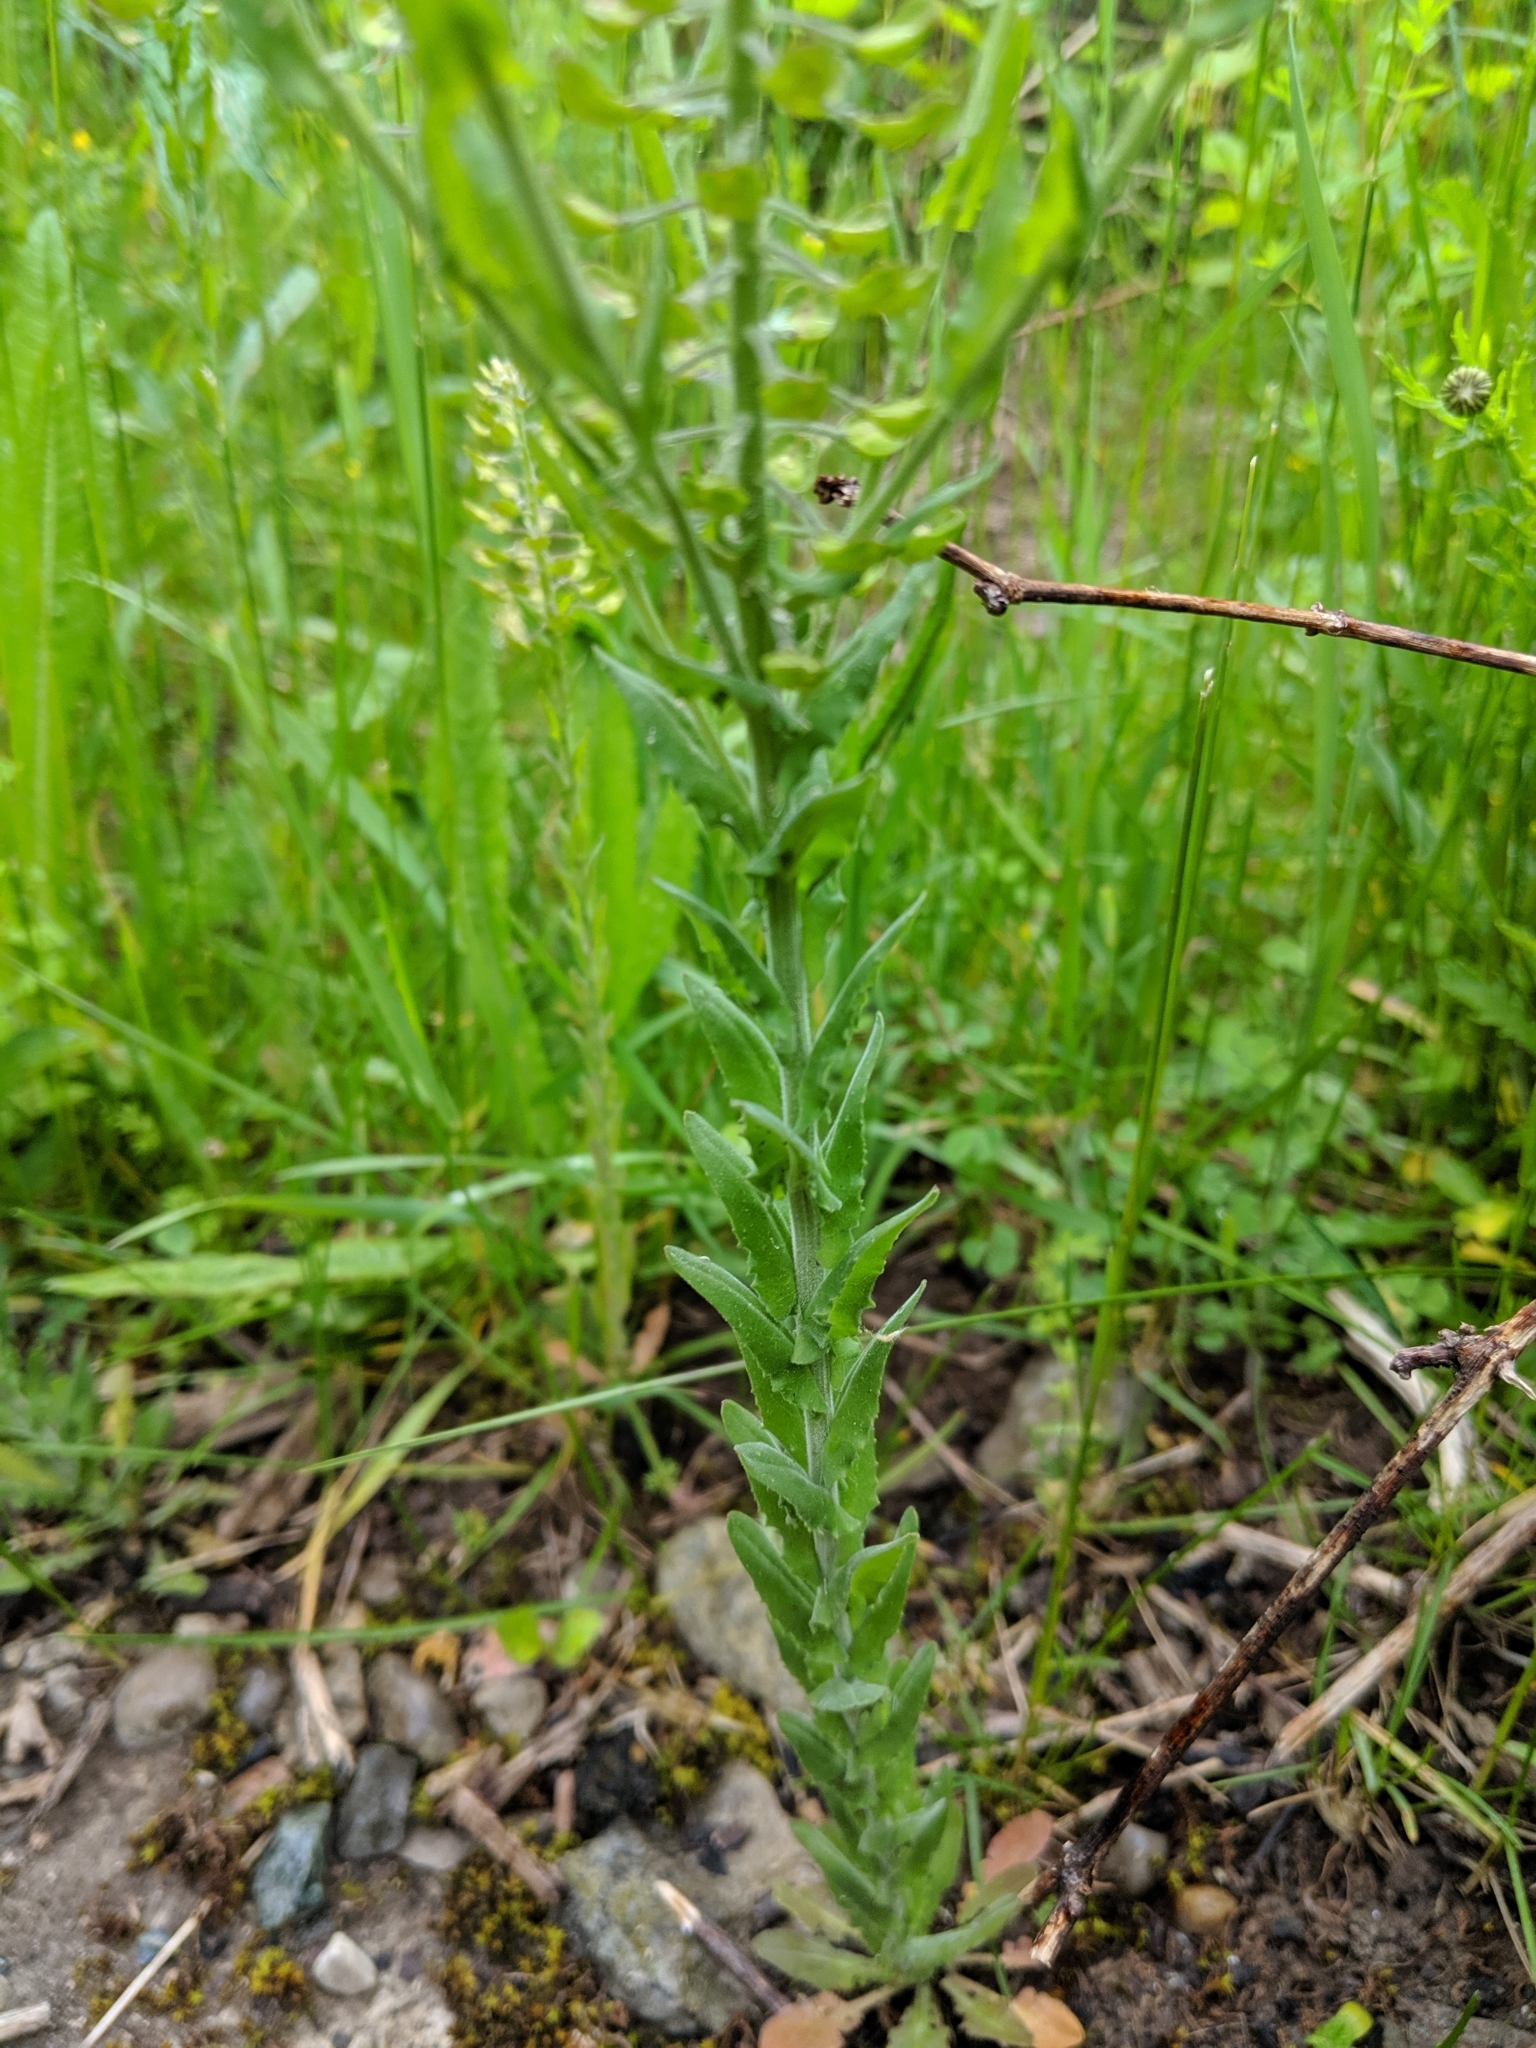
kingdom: Plantae
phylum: Tracheophyta
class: Magnoliopsida
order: Brassicales
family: Brassicaceae
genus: Lepidium
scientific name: Lepidium campestre
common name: Field pepperwort
